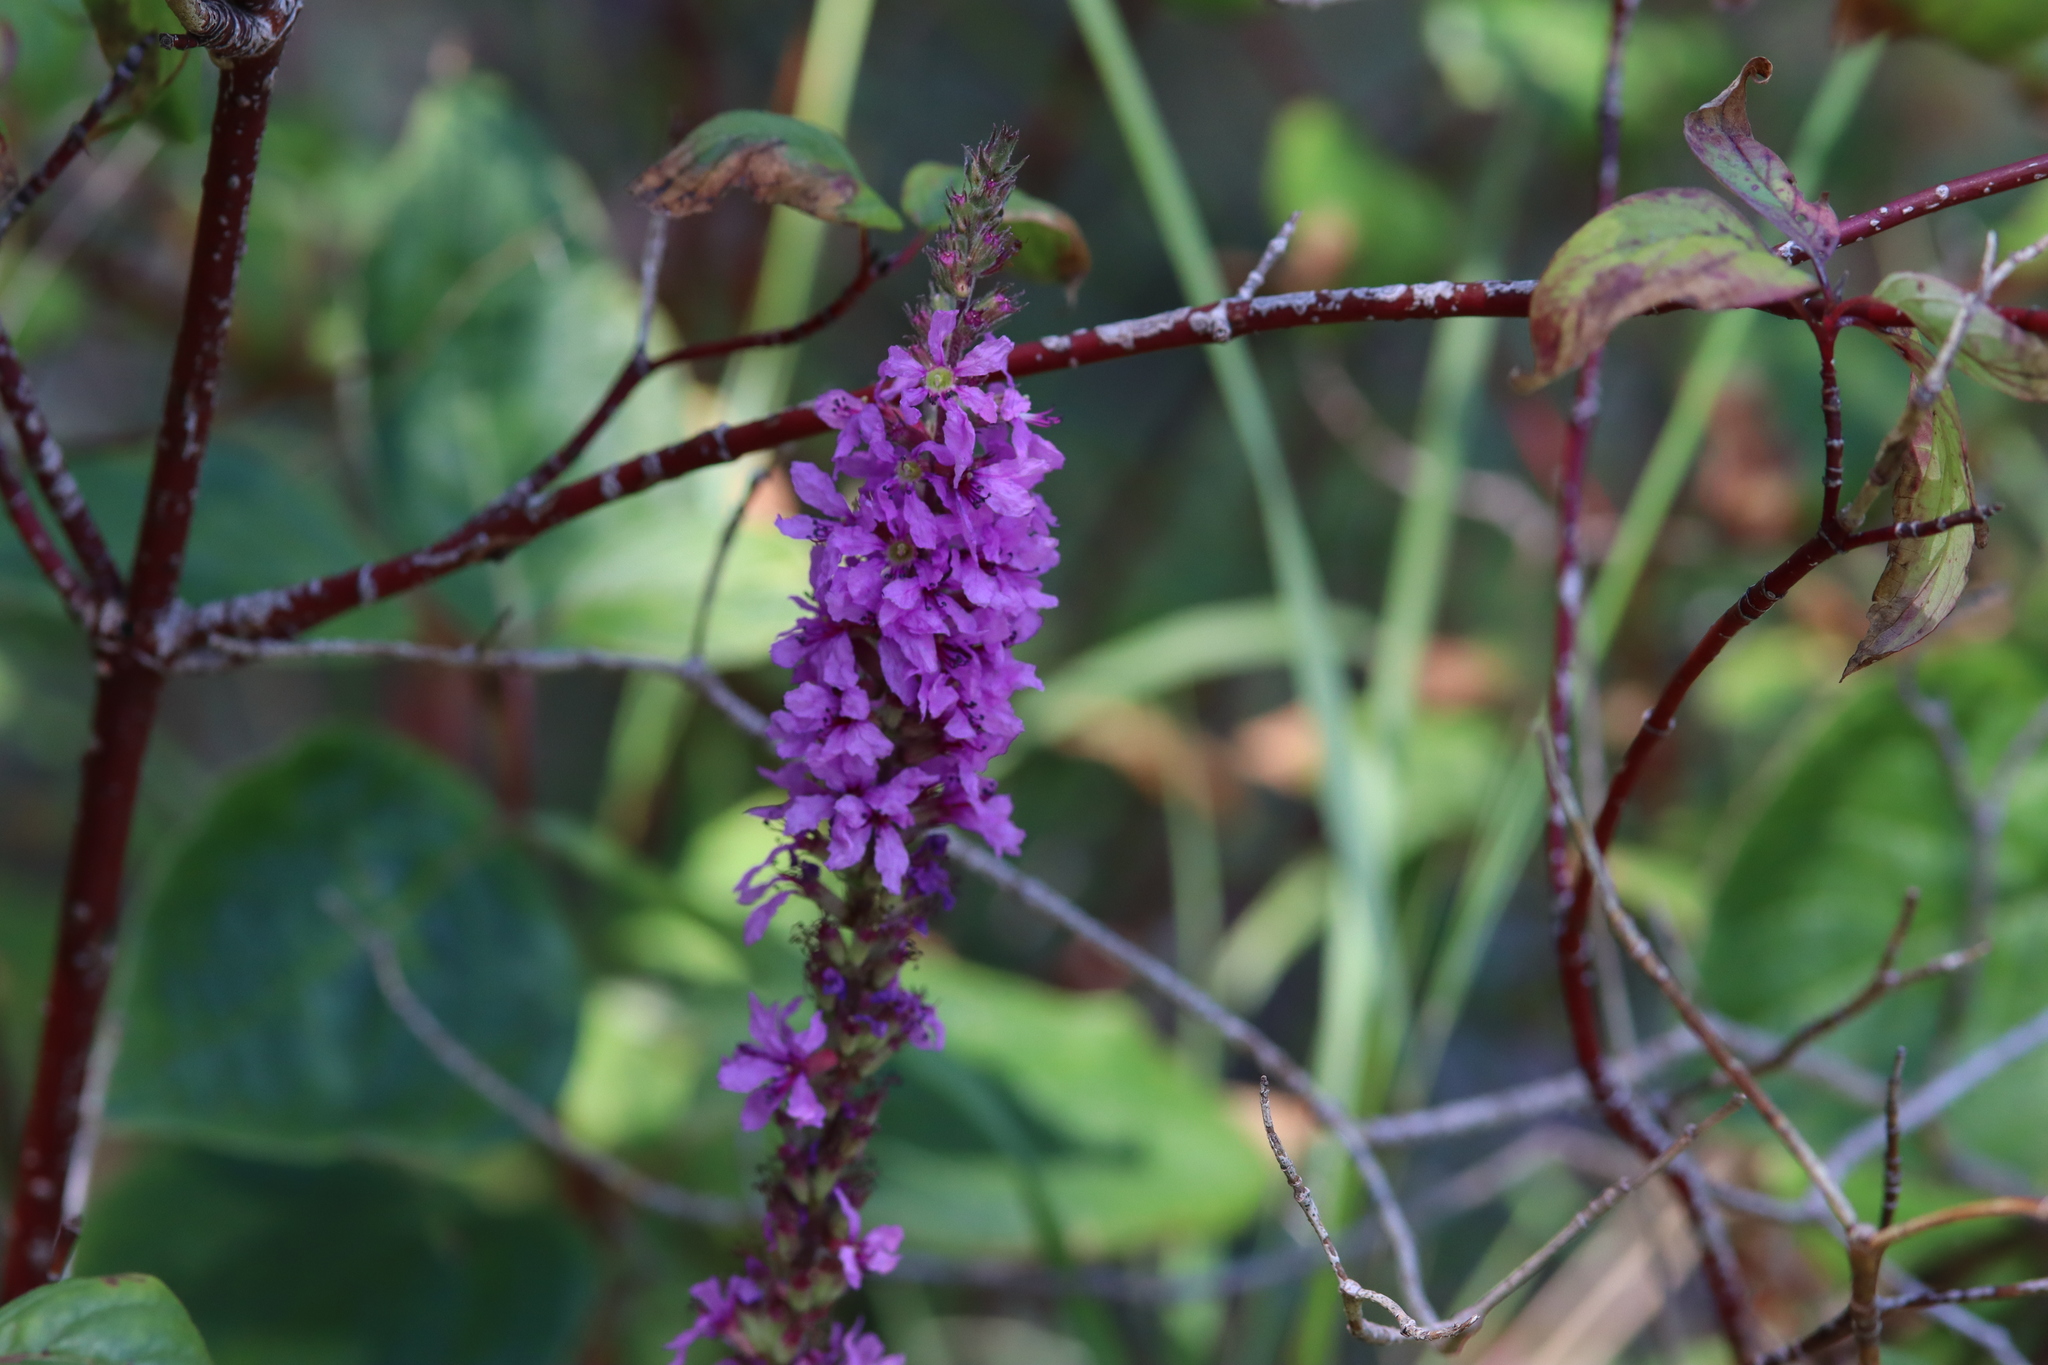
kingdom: Plantae
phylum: Tracheophyta
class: Magnoliopsida
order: Myrtales
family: Lythraceae
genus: Lythrum
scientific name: Lythrum salicaria
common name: Purple loosestrife
